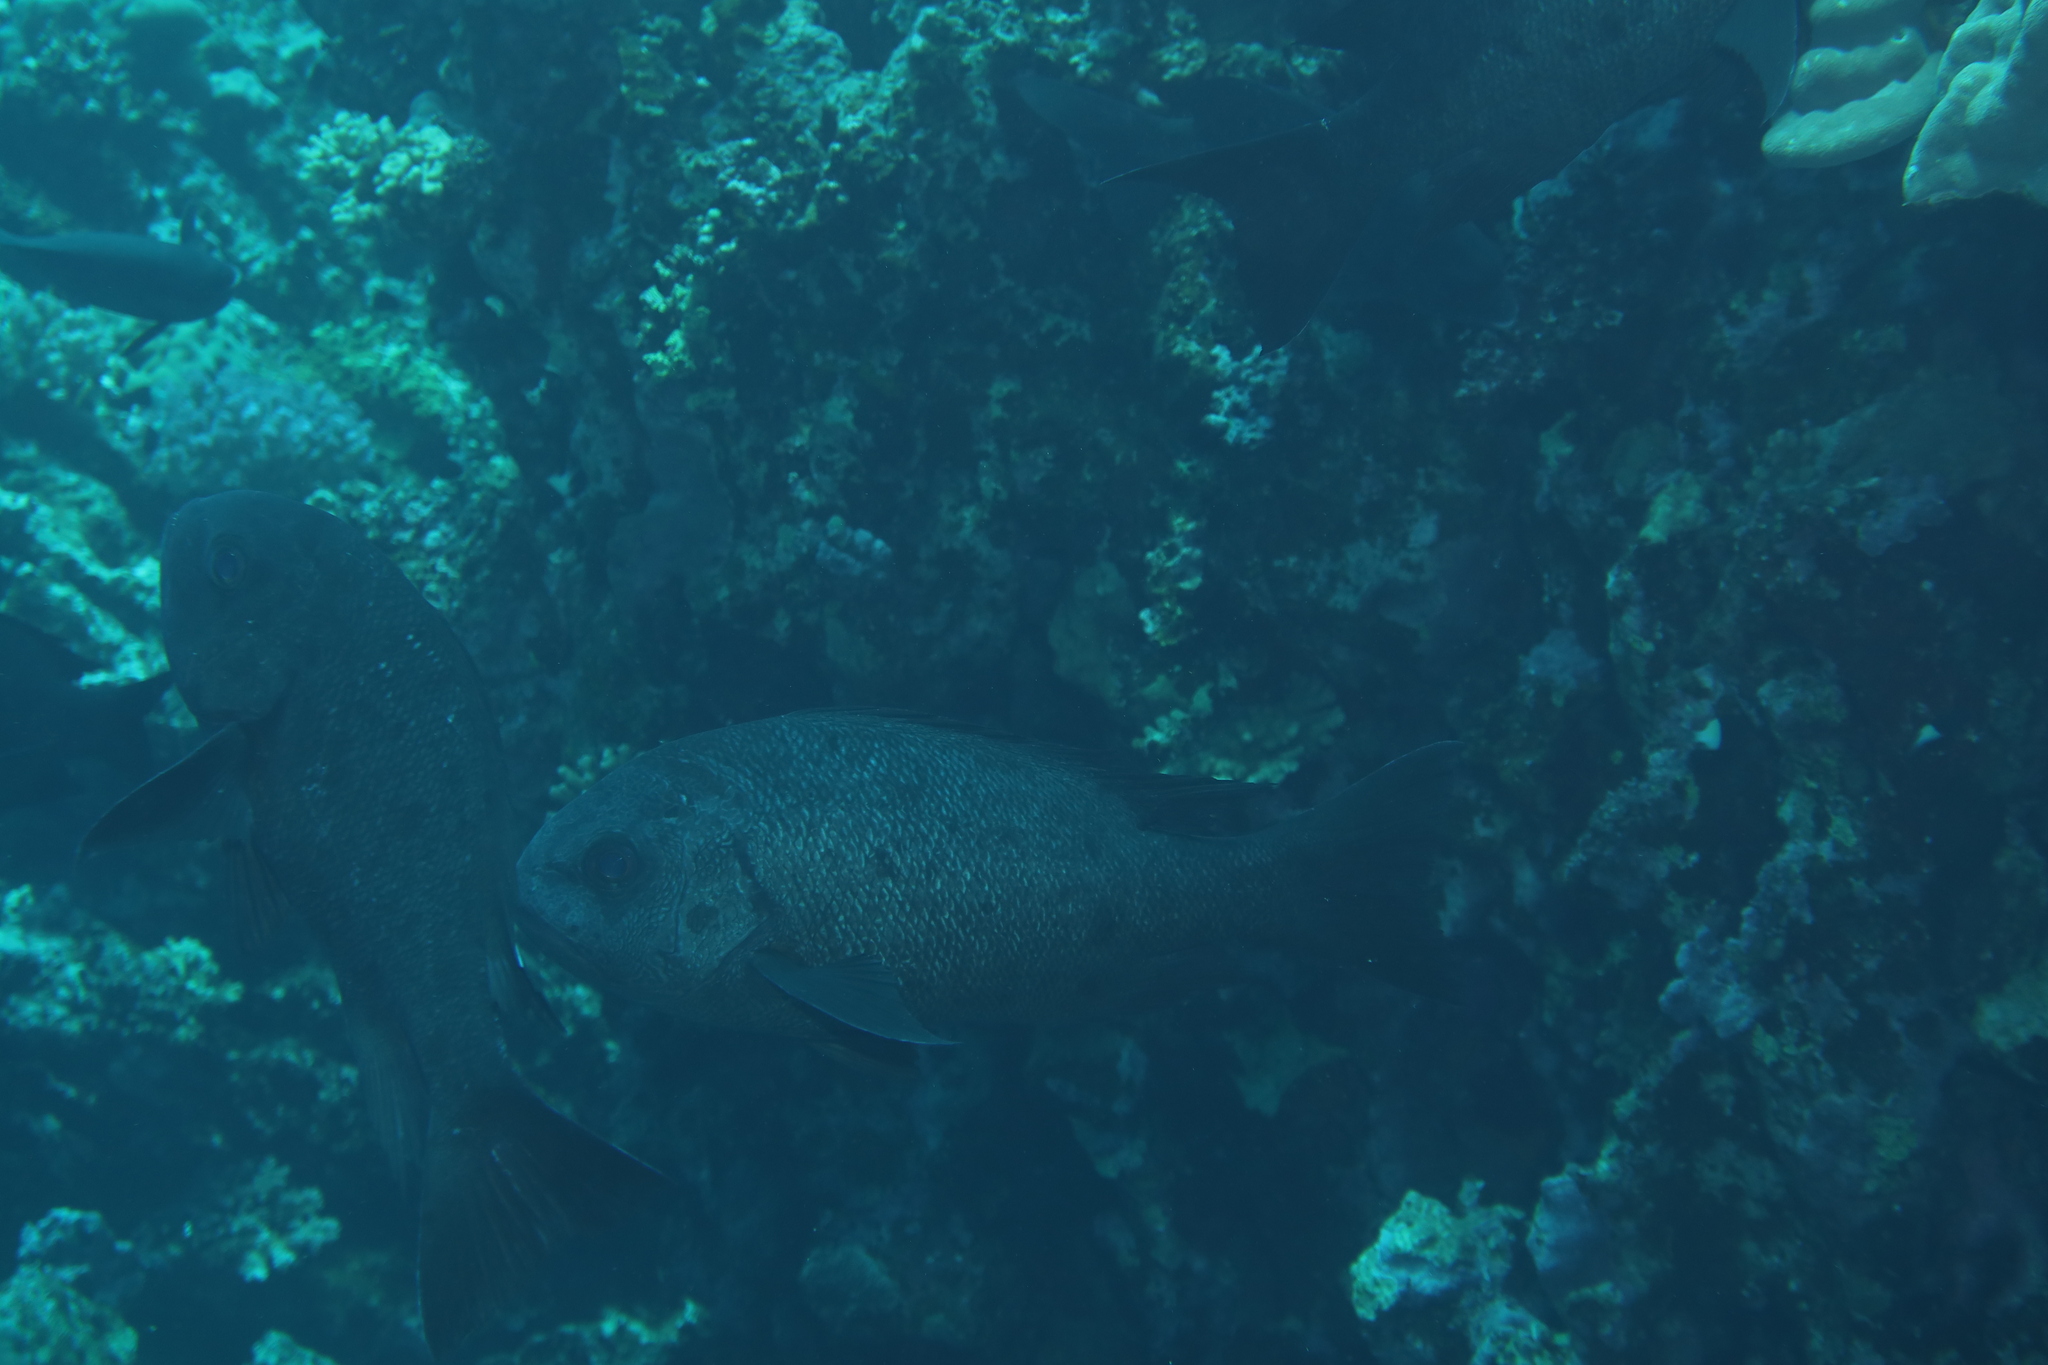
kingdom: Animalia
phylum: Chordata
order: Perciformes
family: Lutjanidae
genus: Macolor
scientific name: Macolor niger
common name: Black snapper
